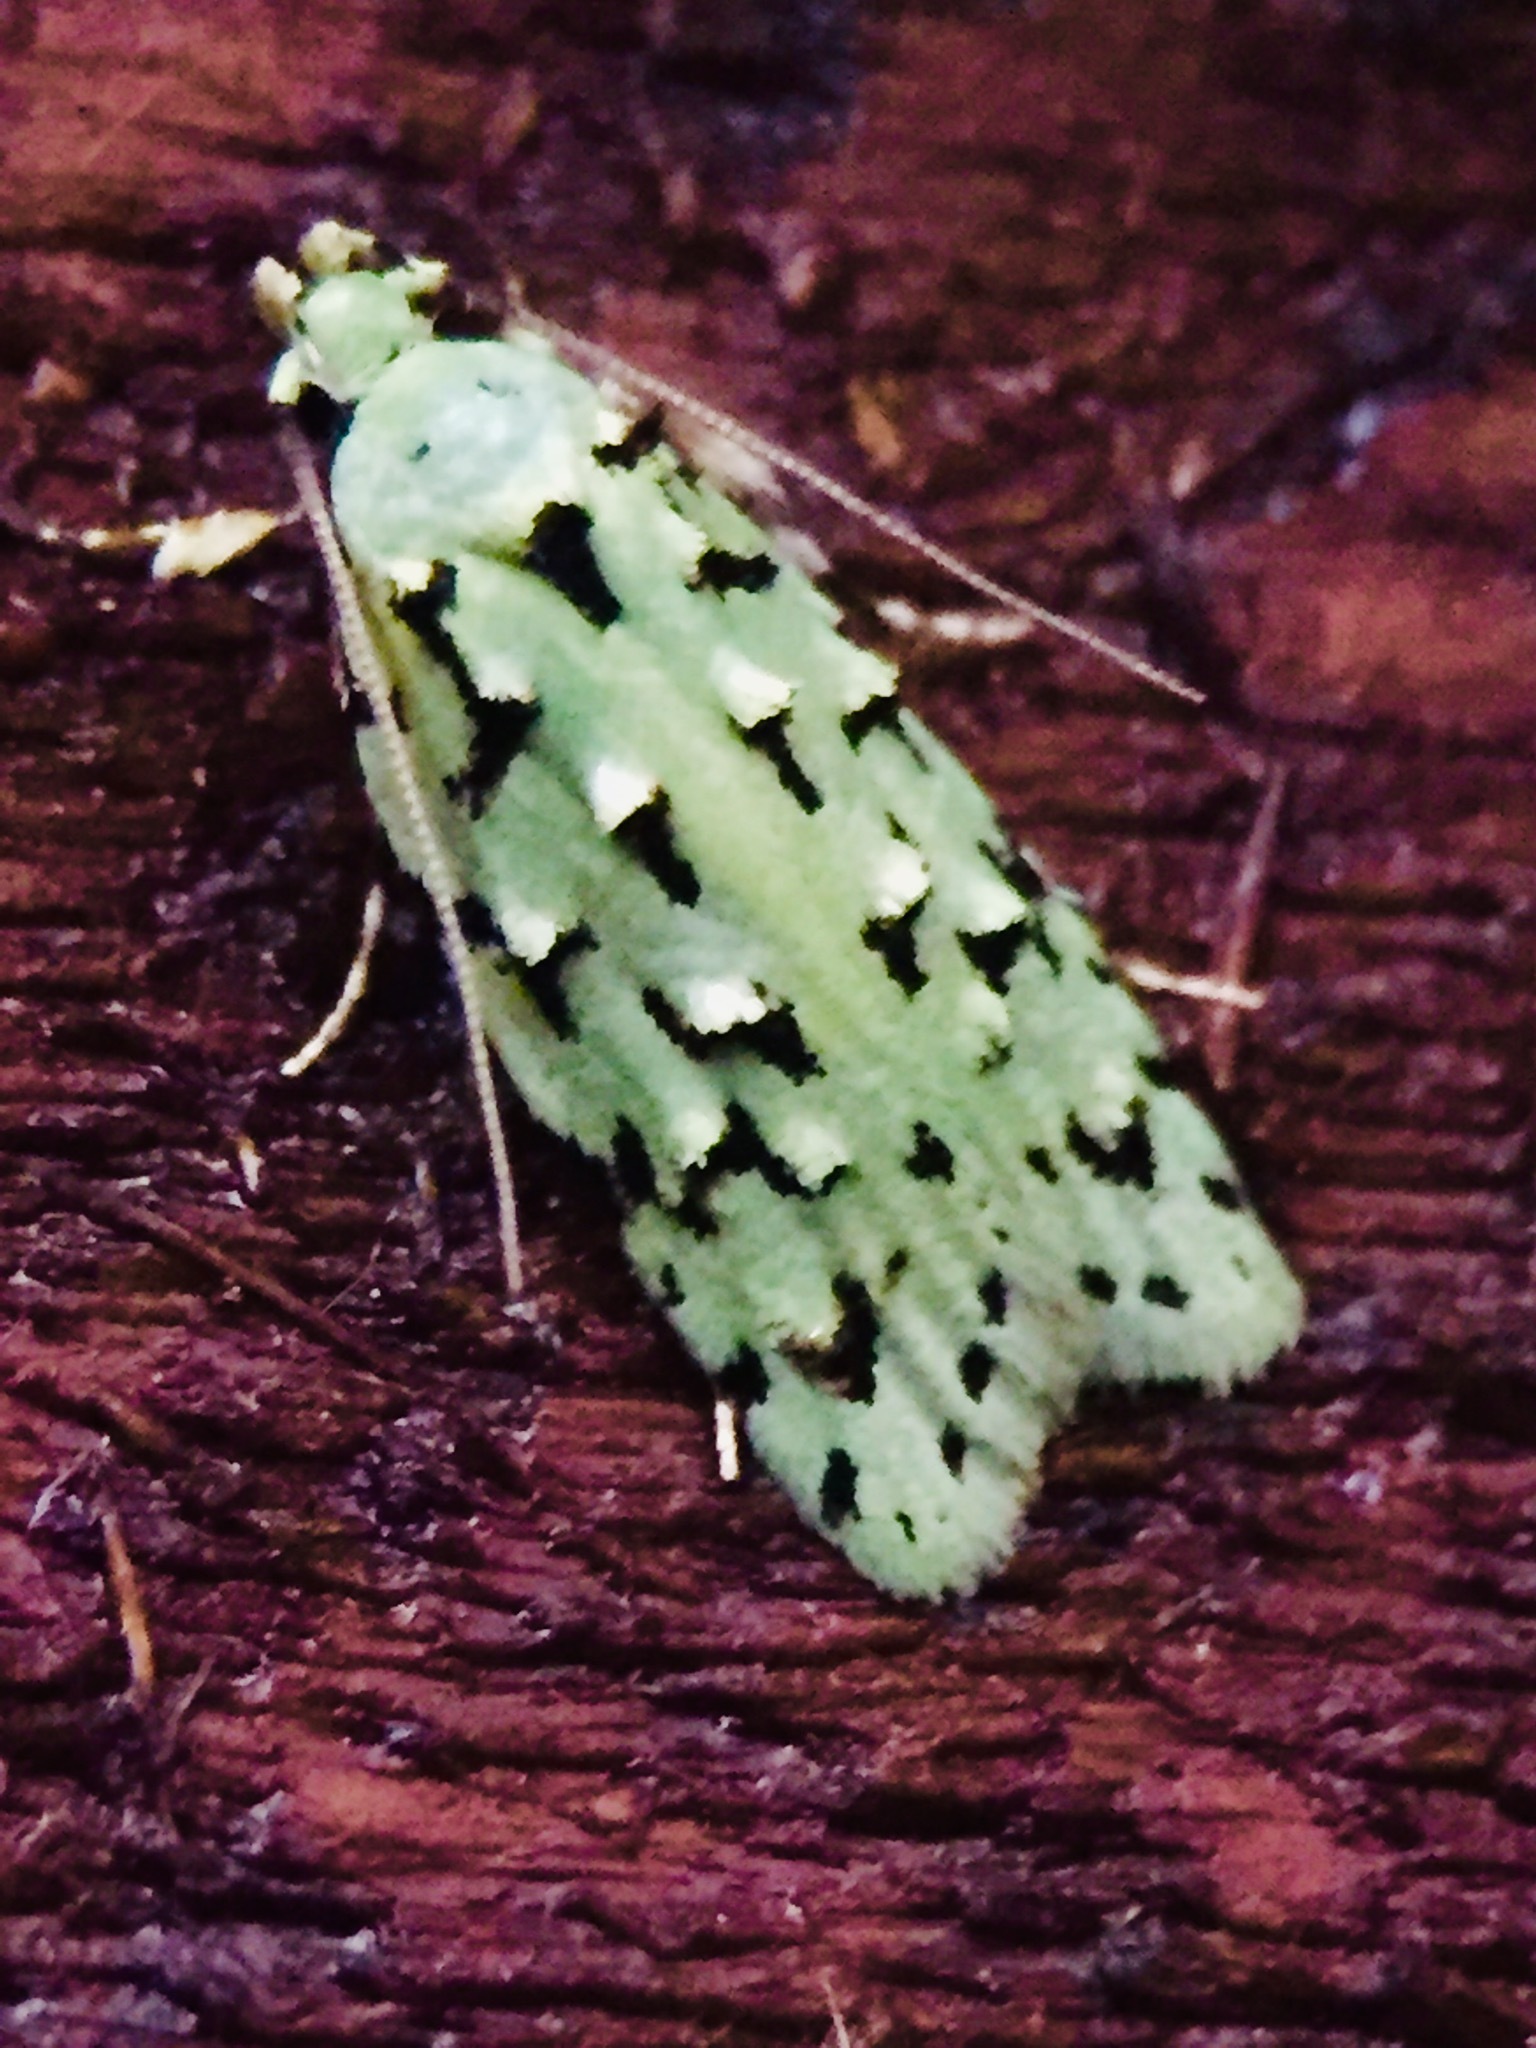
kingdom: Animalia
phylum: Arthropoda
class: Insecta
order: Lepidoptera
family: Oecophoridae
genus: Izatha
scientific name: Izatha peroneanella
